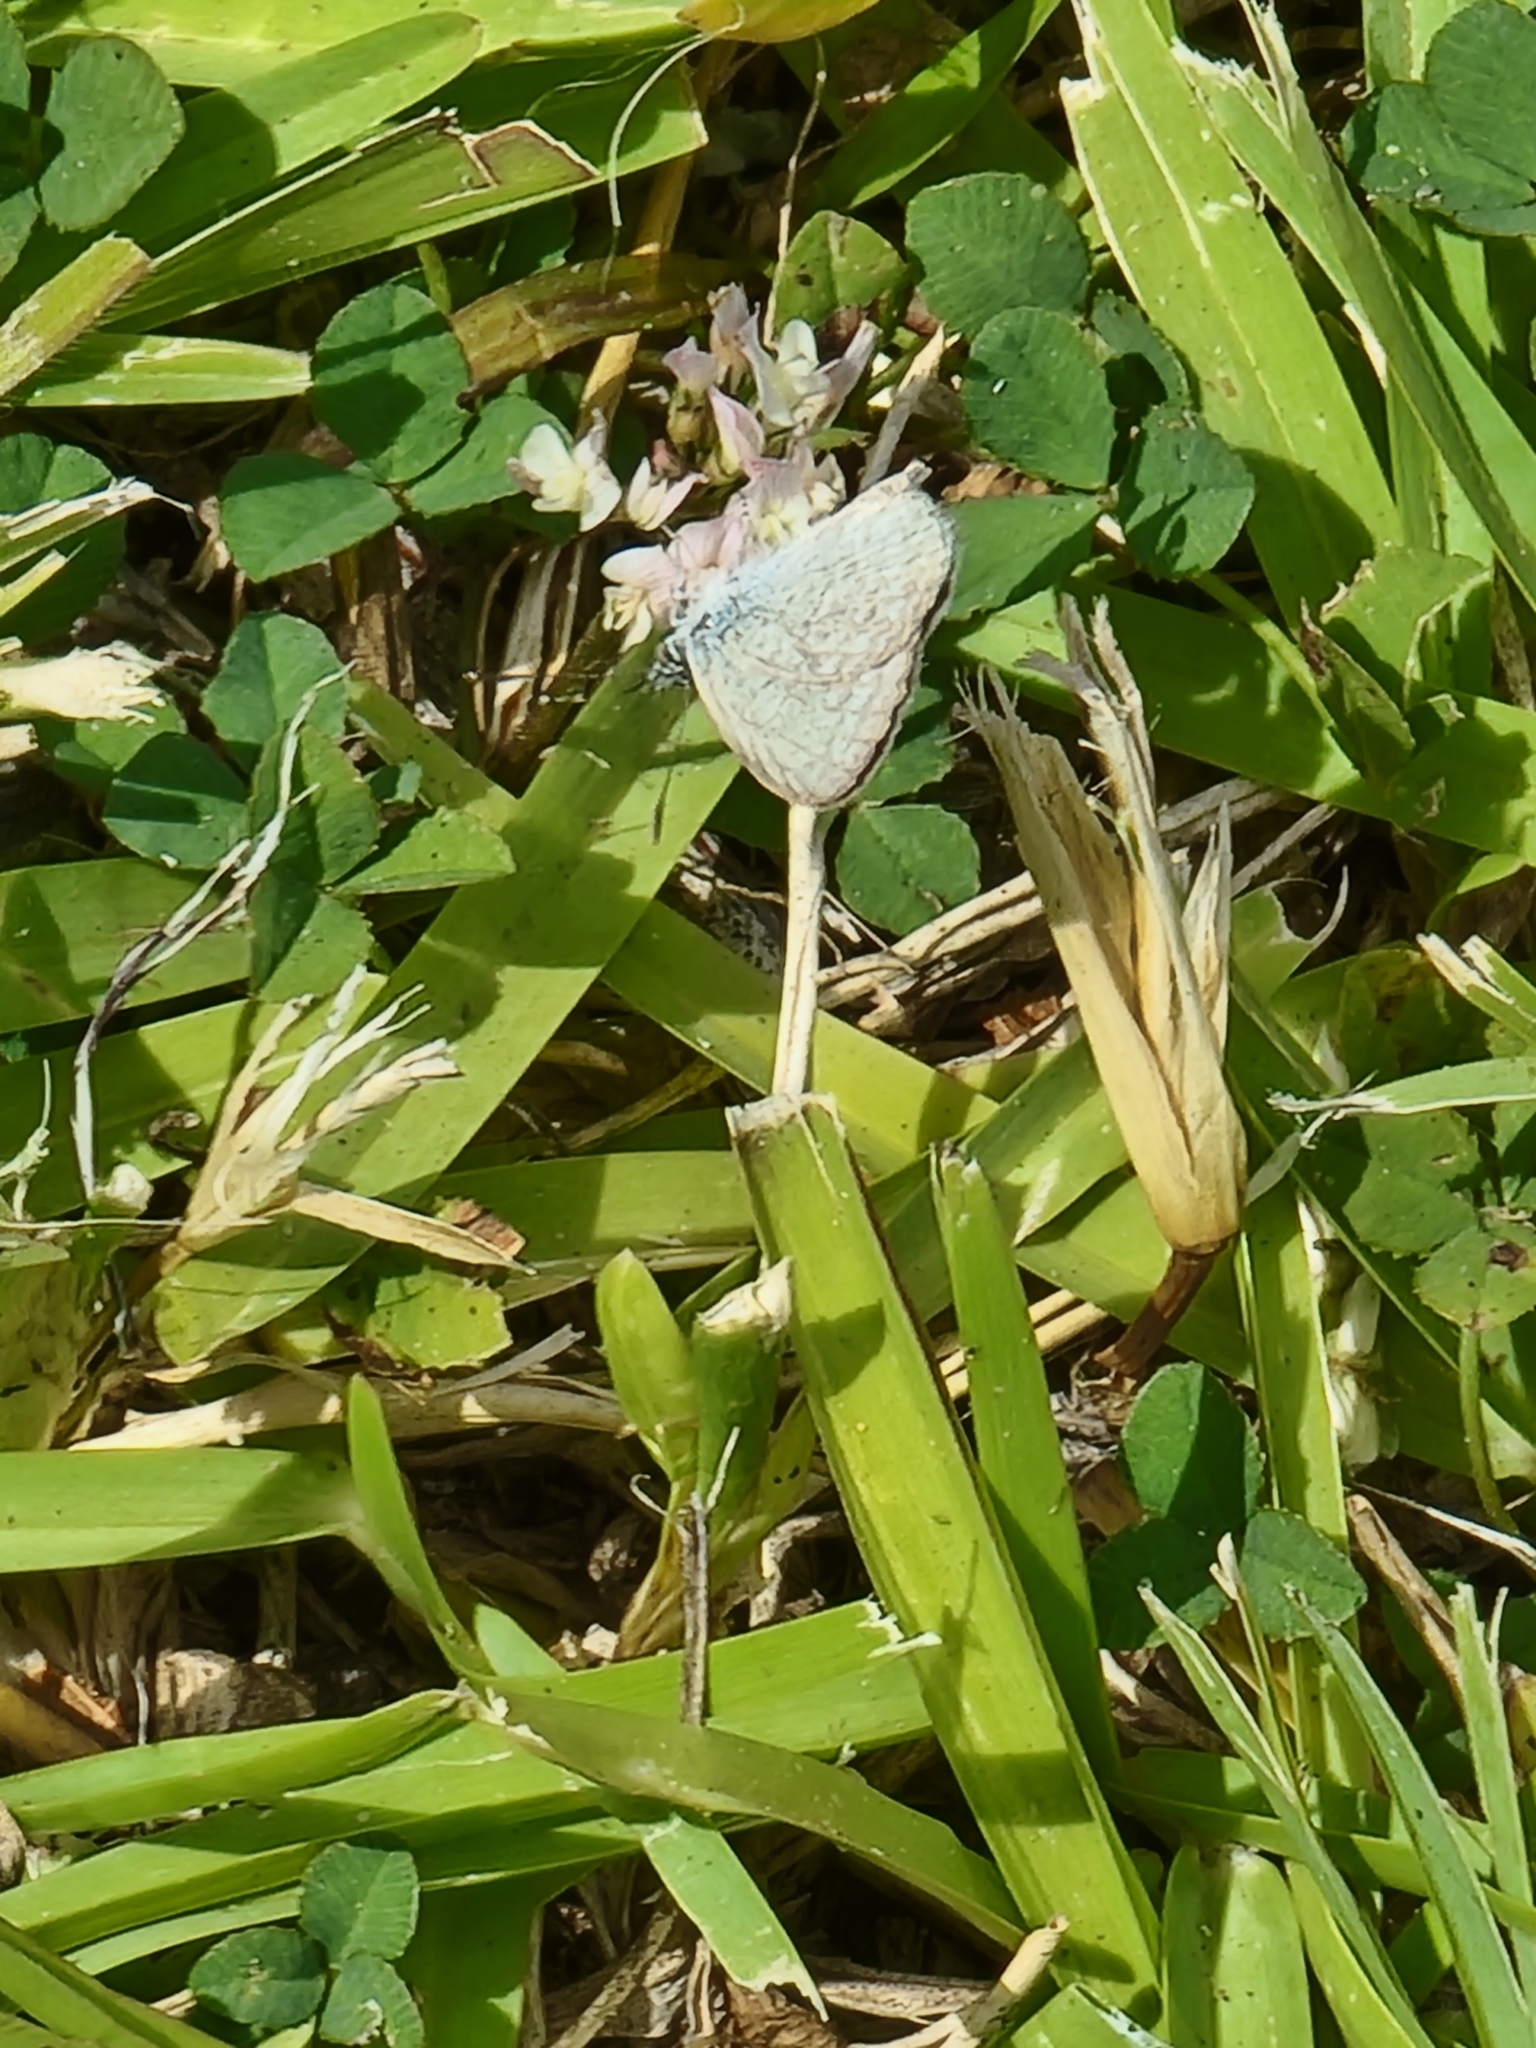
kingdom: Animalia
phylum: Arthropoda
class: Insecta
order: Lepidoptera
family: Lycaenidae
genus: Zizina
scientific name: Zizina otis
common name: Lesser grass blue
